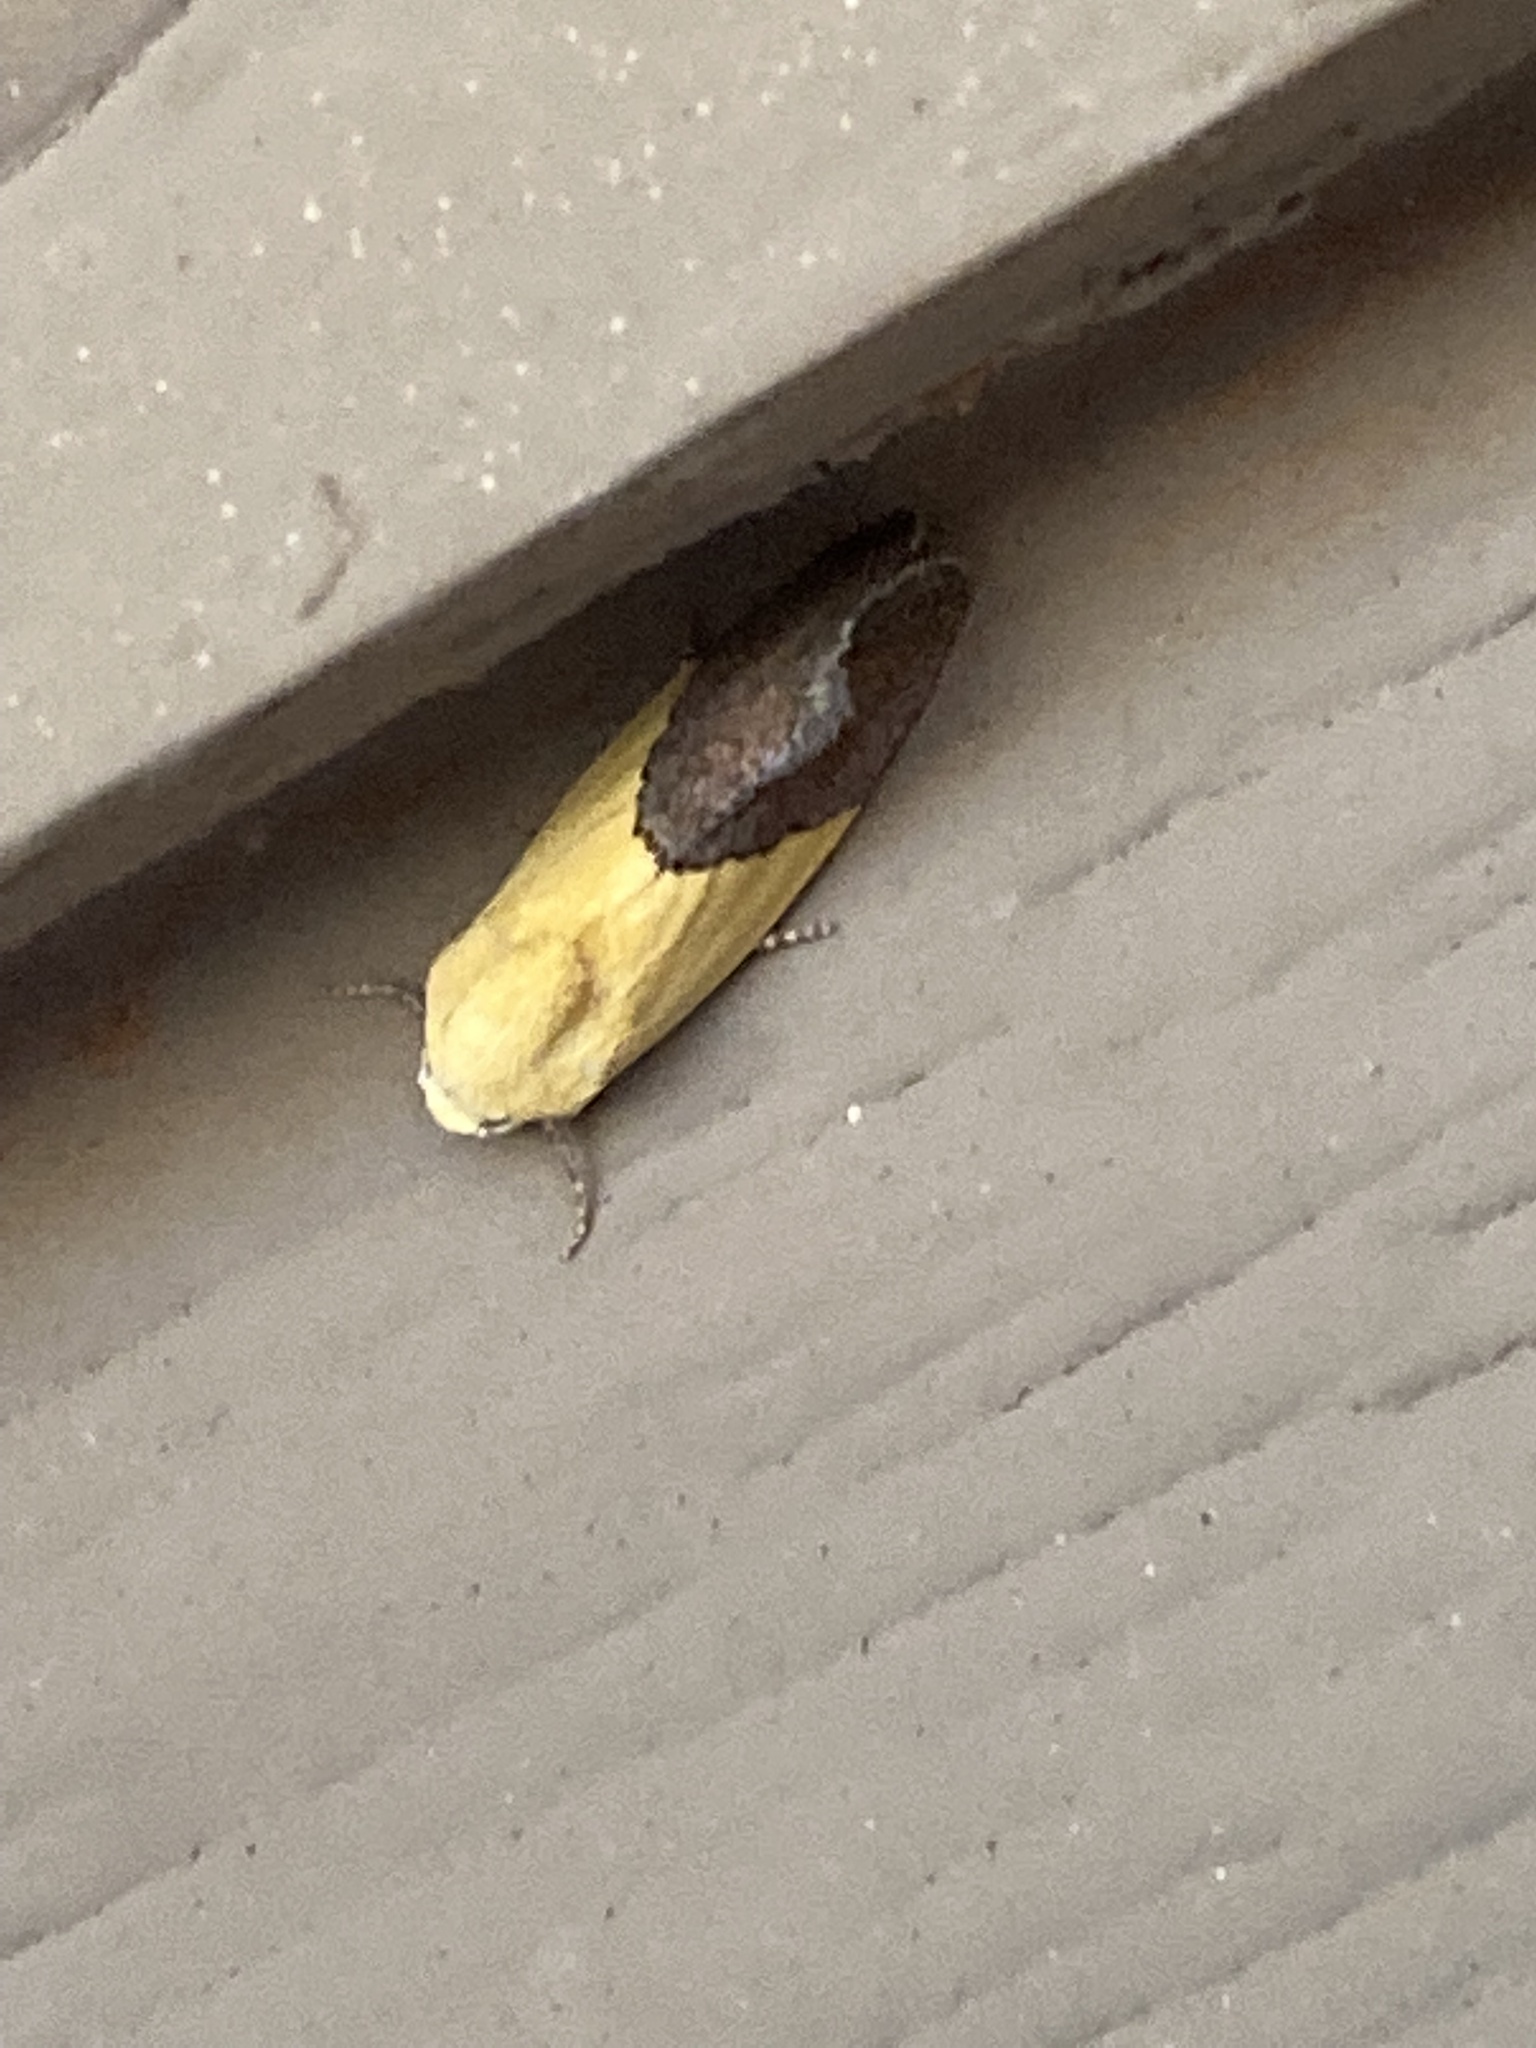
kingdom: Animalia
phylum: Arthropoda
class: Insecta
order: Lepidoptera
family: Noctuidae
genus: Acontia
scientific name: Acontia semiflava
